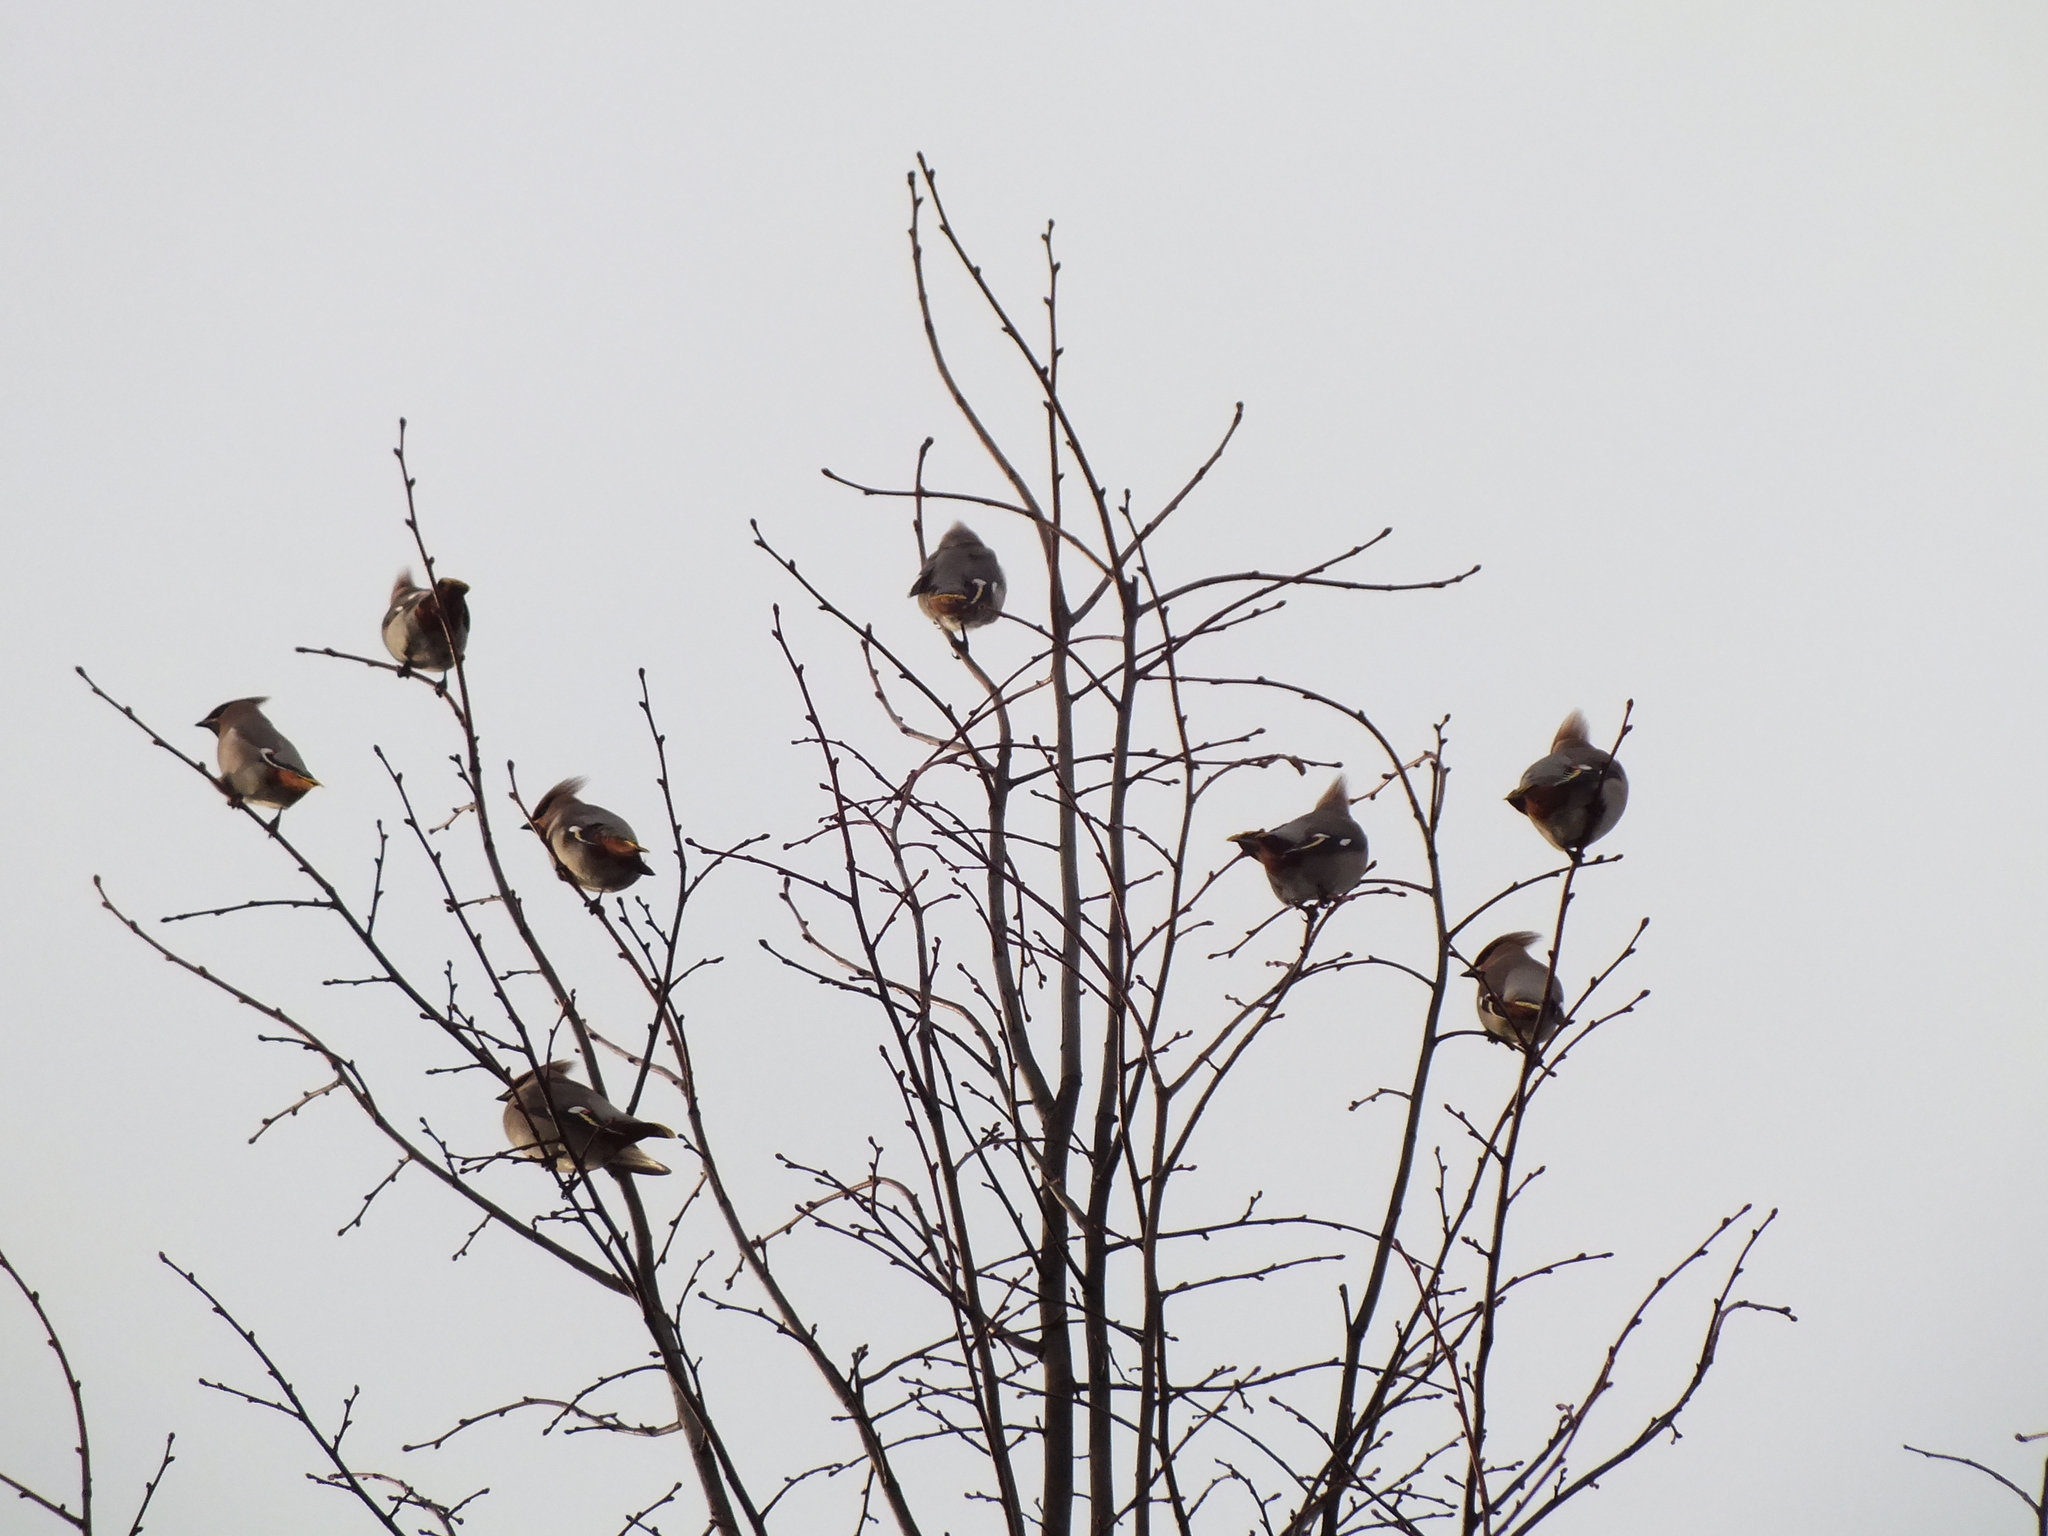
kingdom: Animalia
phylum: Chordata
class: Aves
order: Passeriformes
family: Bombycillidae
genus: Bombycilla
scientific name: Bombycilla garrulus
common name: Bohemian waxwing
